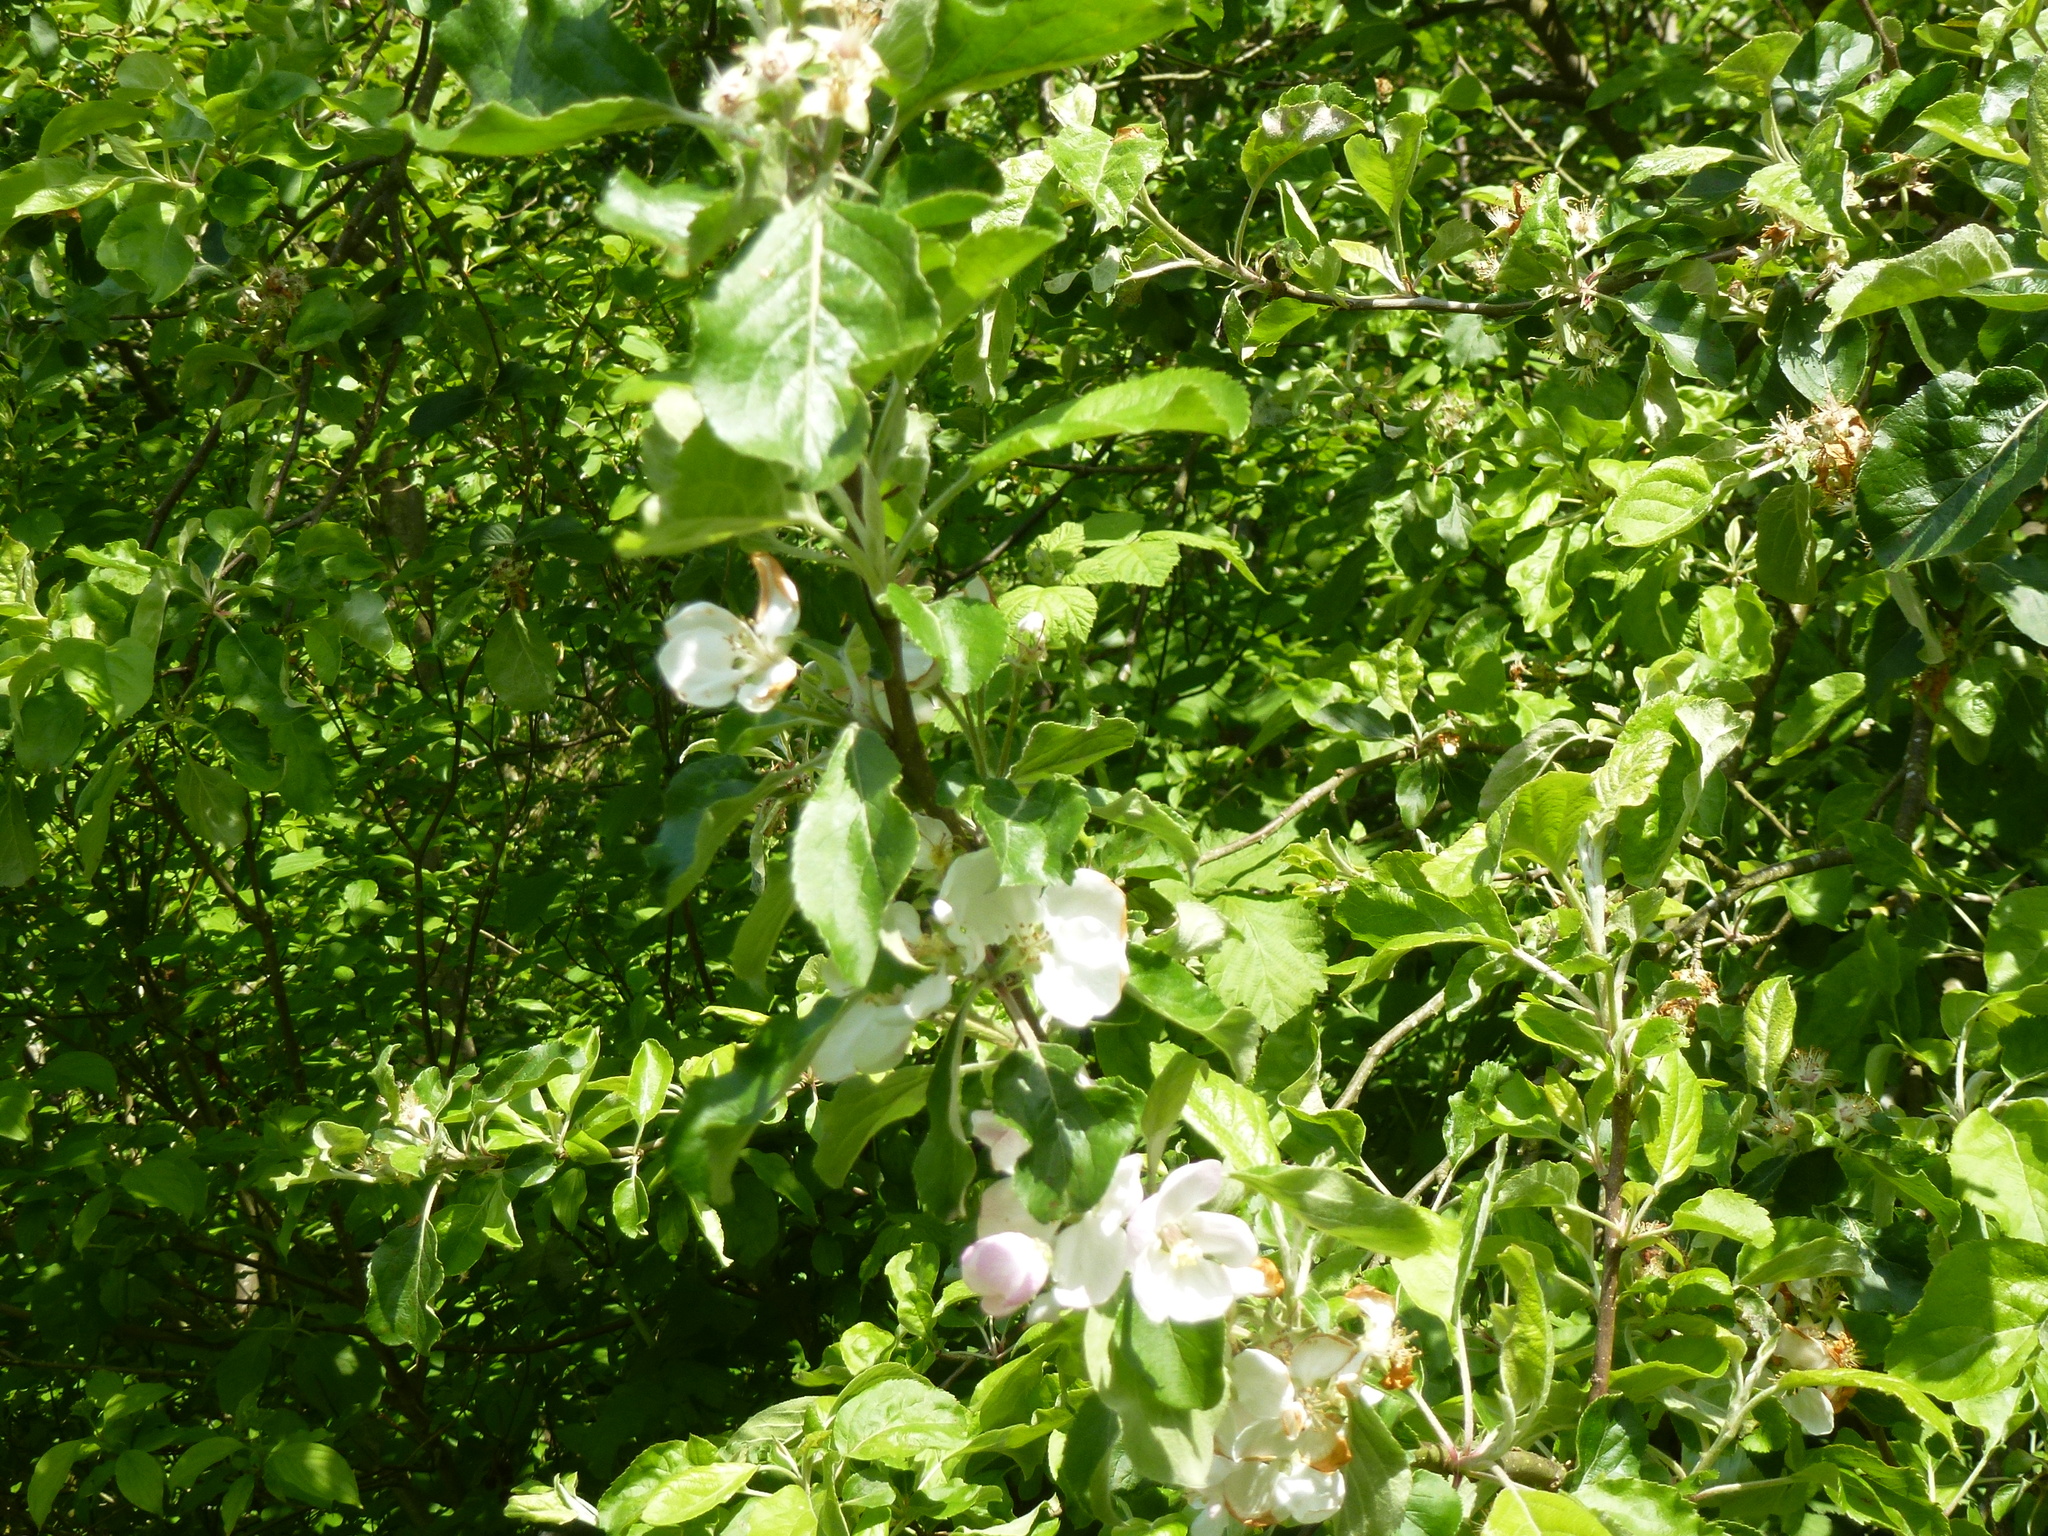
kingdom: Plantae
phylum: Tracheophyta
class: Magnoliopsida
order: Rosales
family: Rosaceae
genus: Malus
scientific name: Malus domestica
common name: Apple
